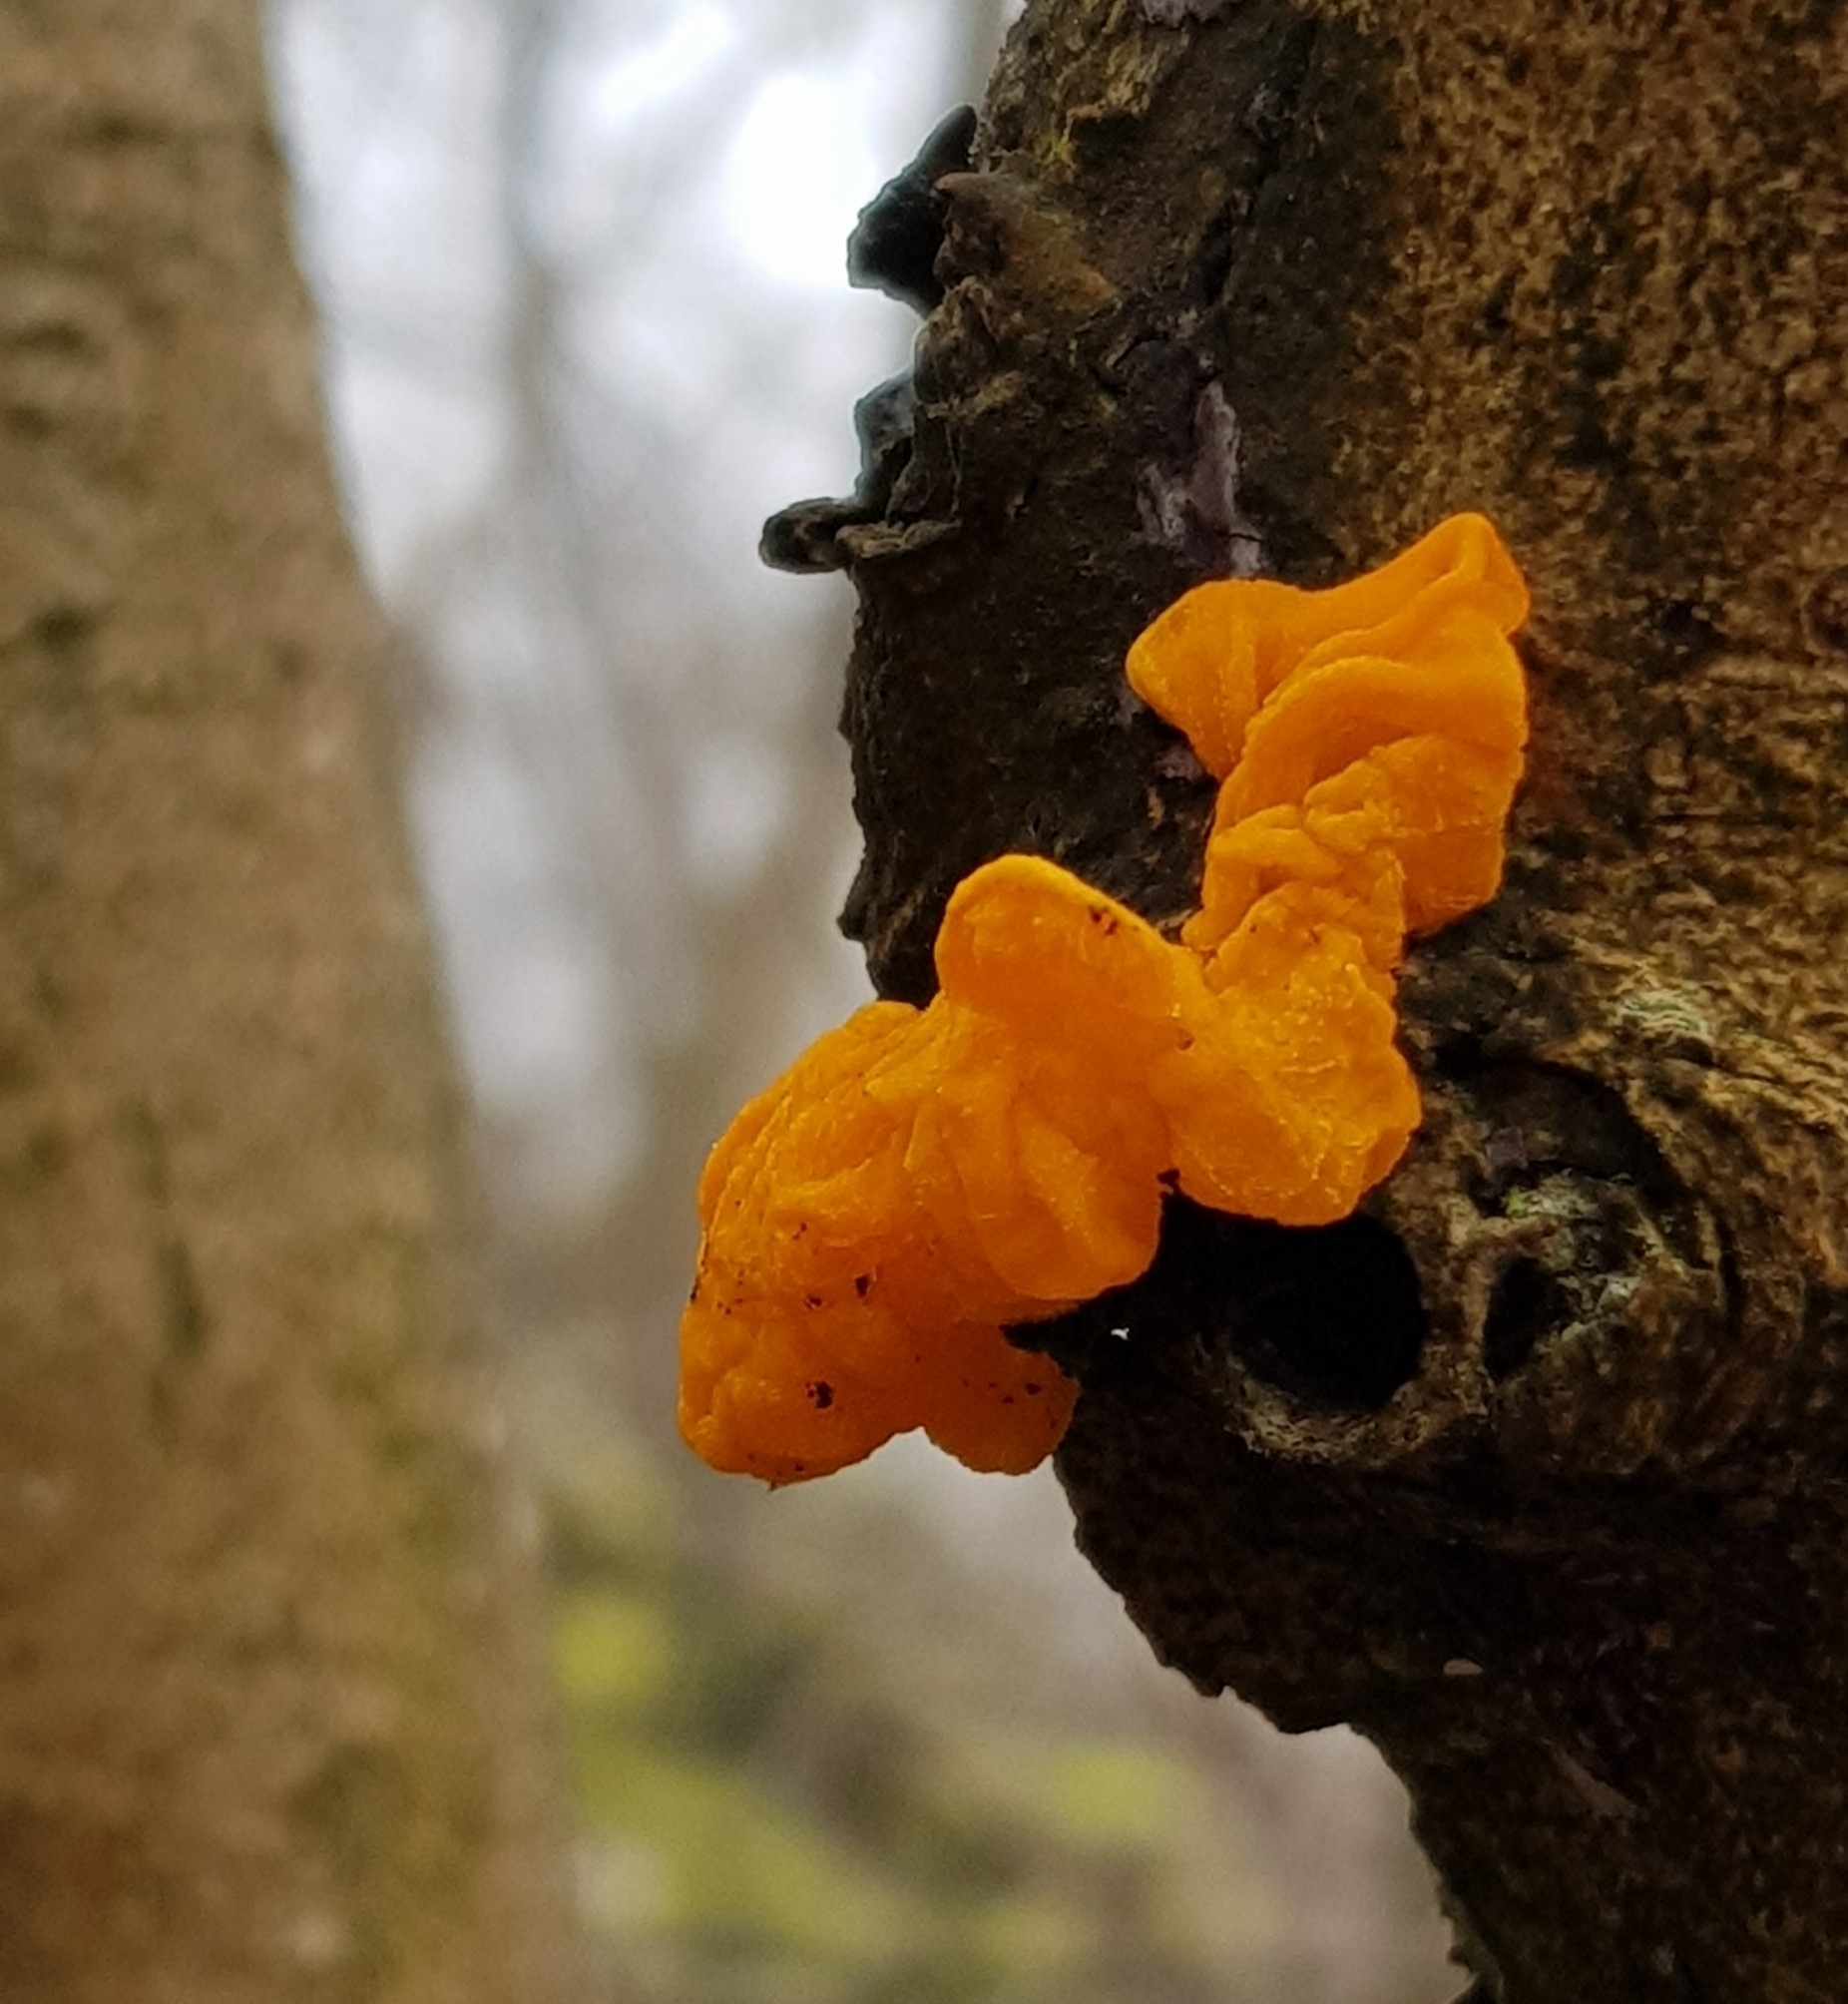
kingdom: Fungi
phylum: Basidiomycota
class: Tremellomycetes
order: Tremellales
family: Tremellaceae
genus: Tremella
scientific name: Tremella mesenterica
